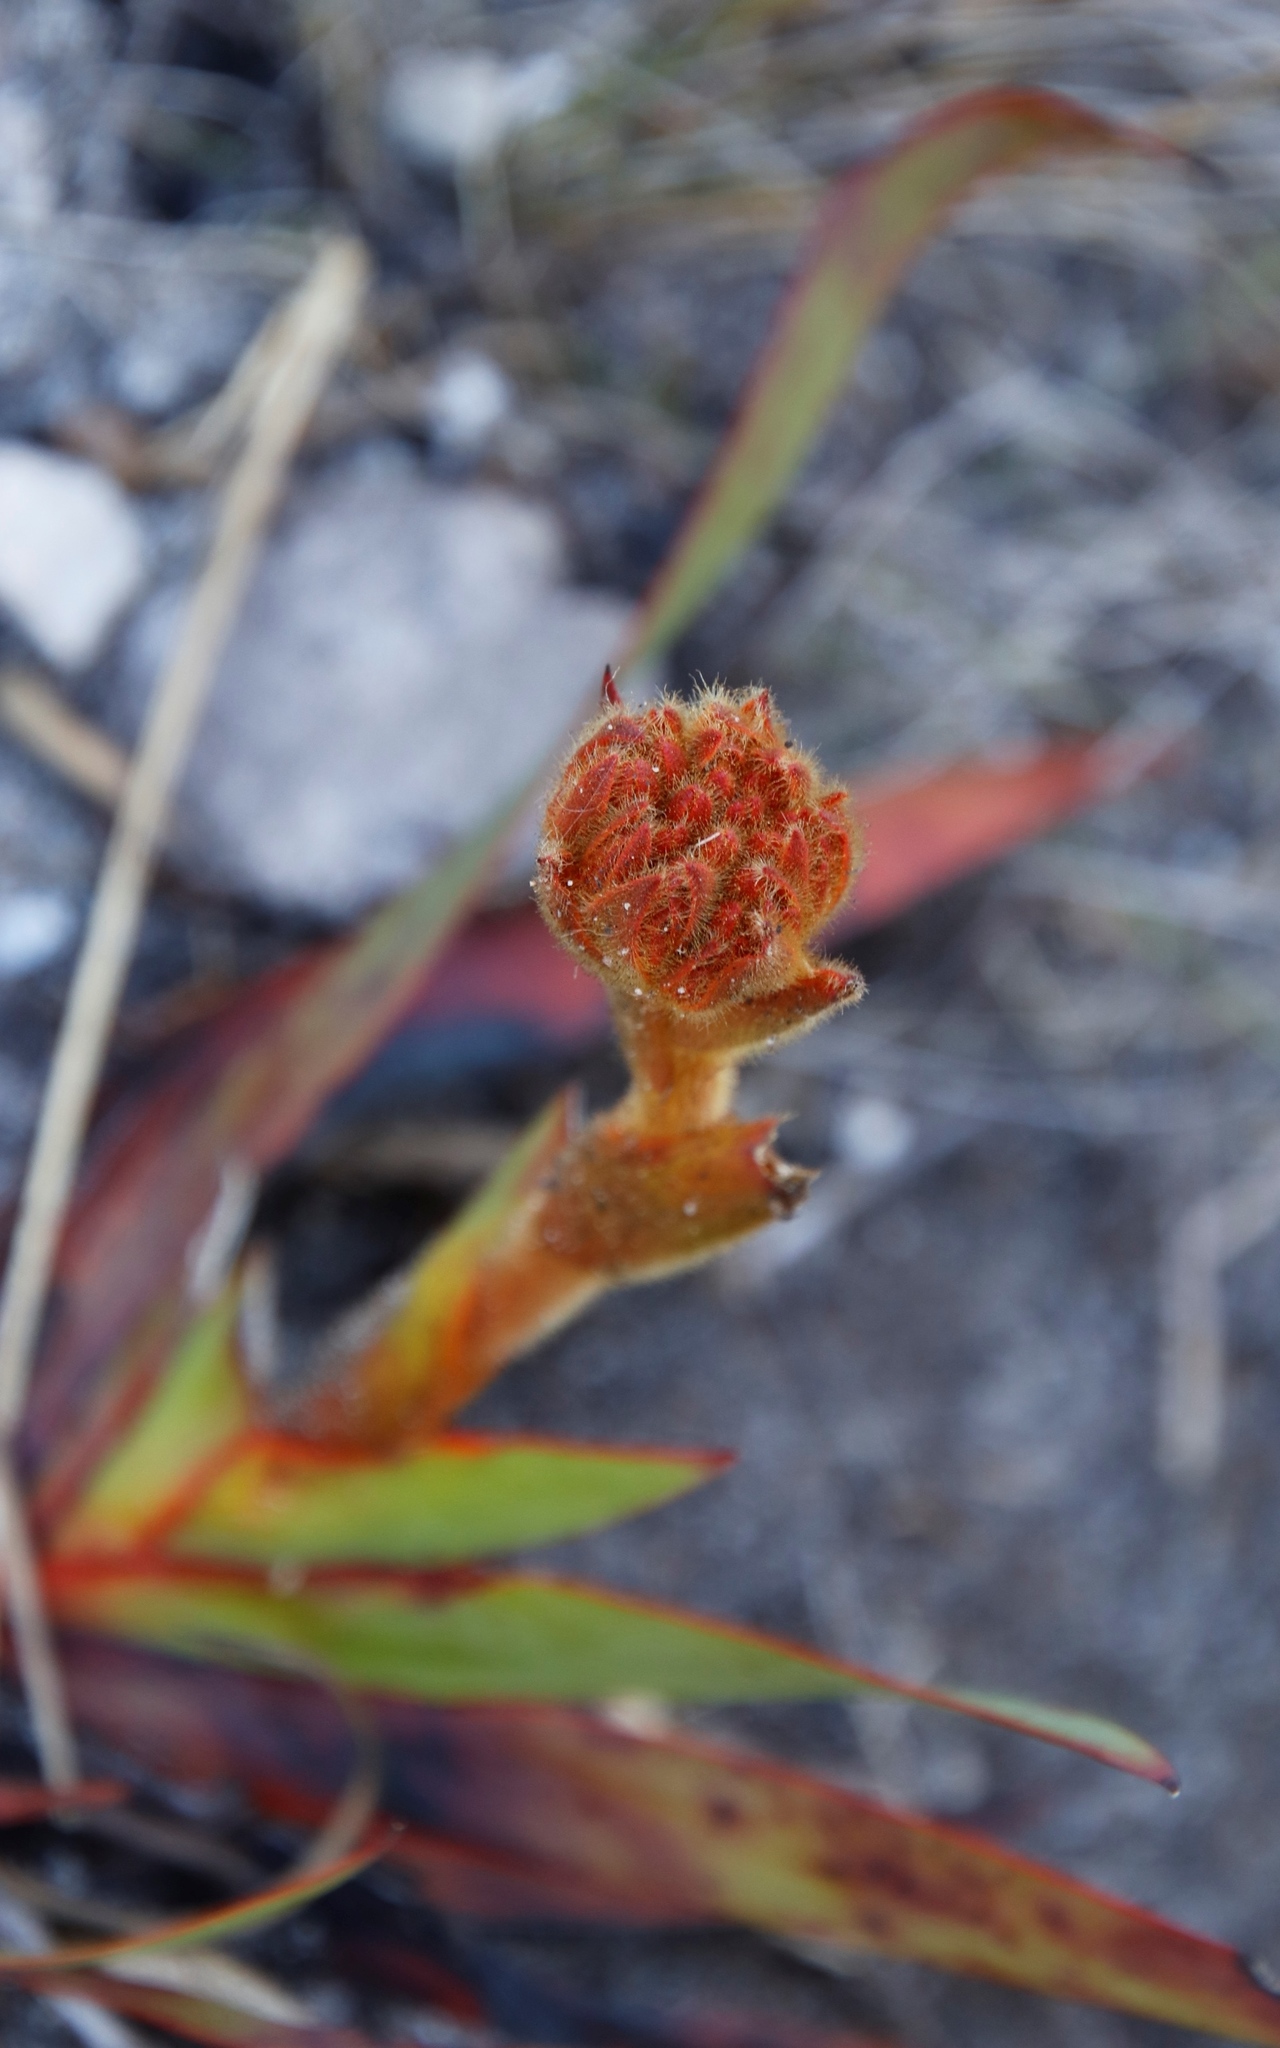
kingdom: Plantae
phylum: Tracheophyta
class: Liliopsida
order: Commelinales
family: Haemodoraceae
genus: Dilatris
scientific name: Dilatris viscosa
